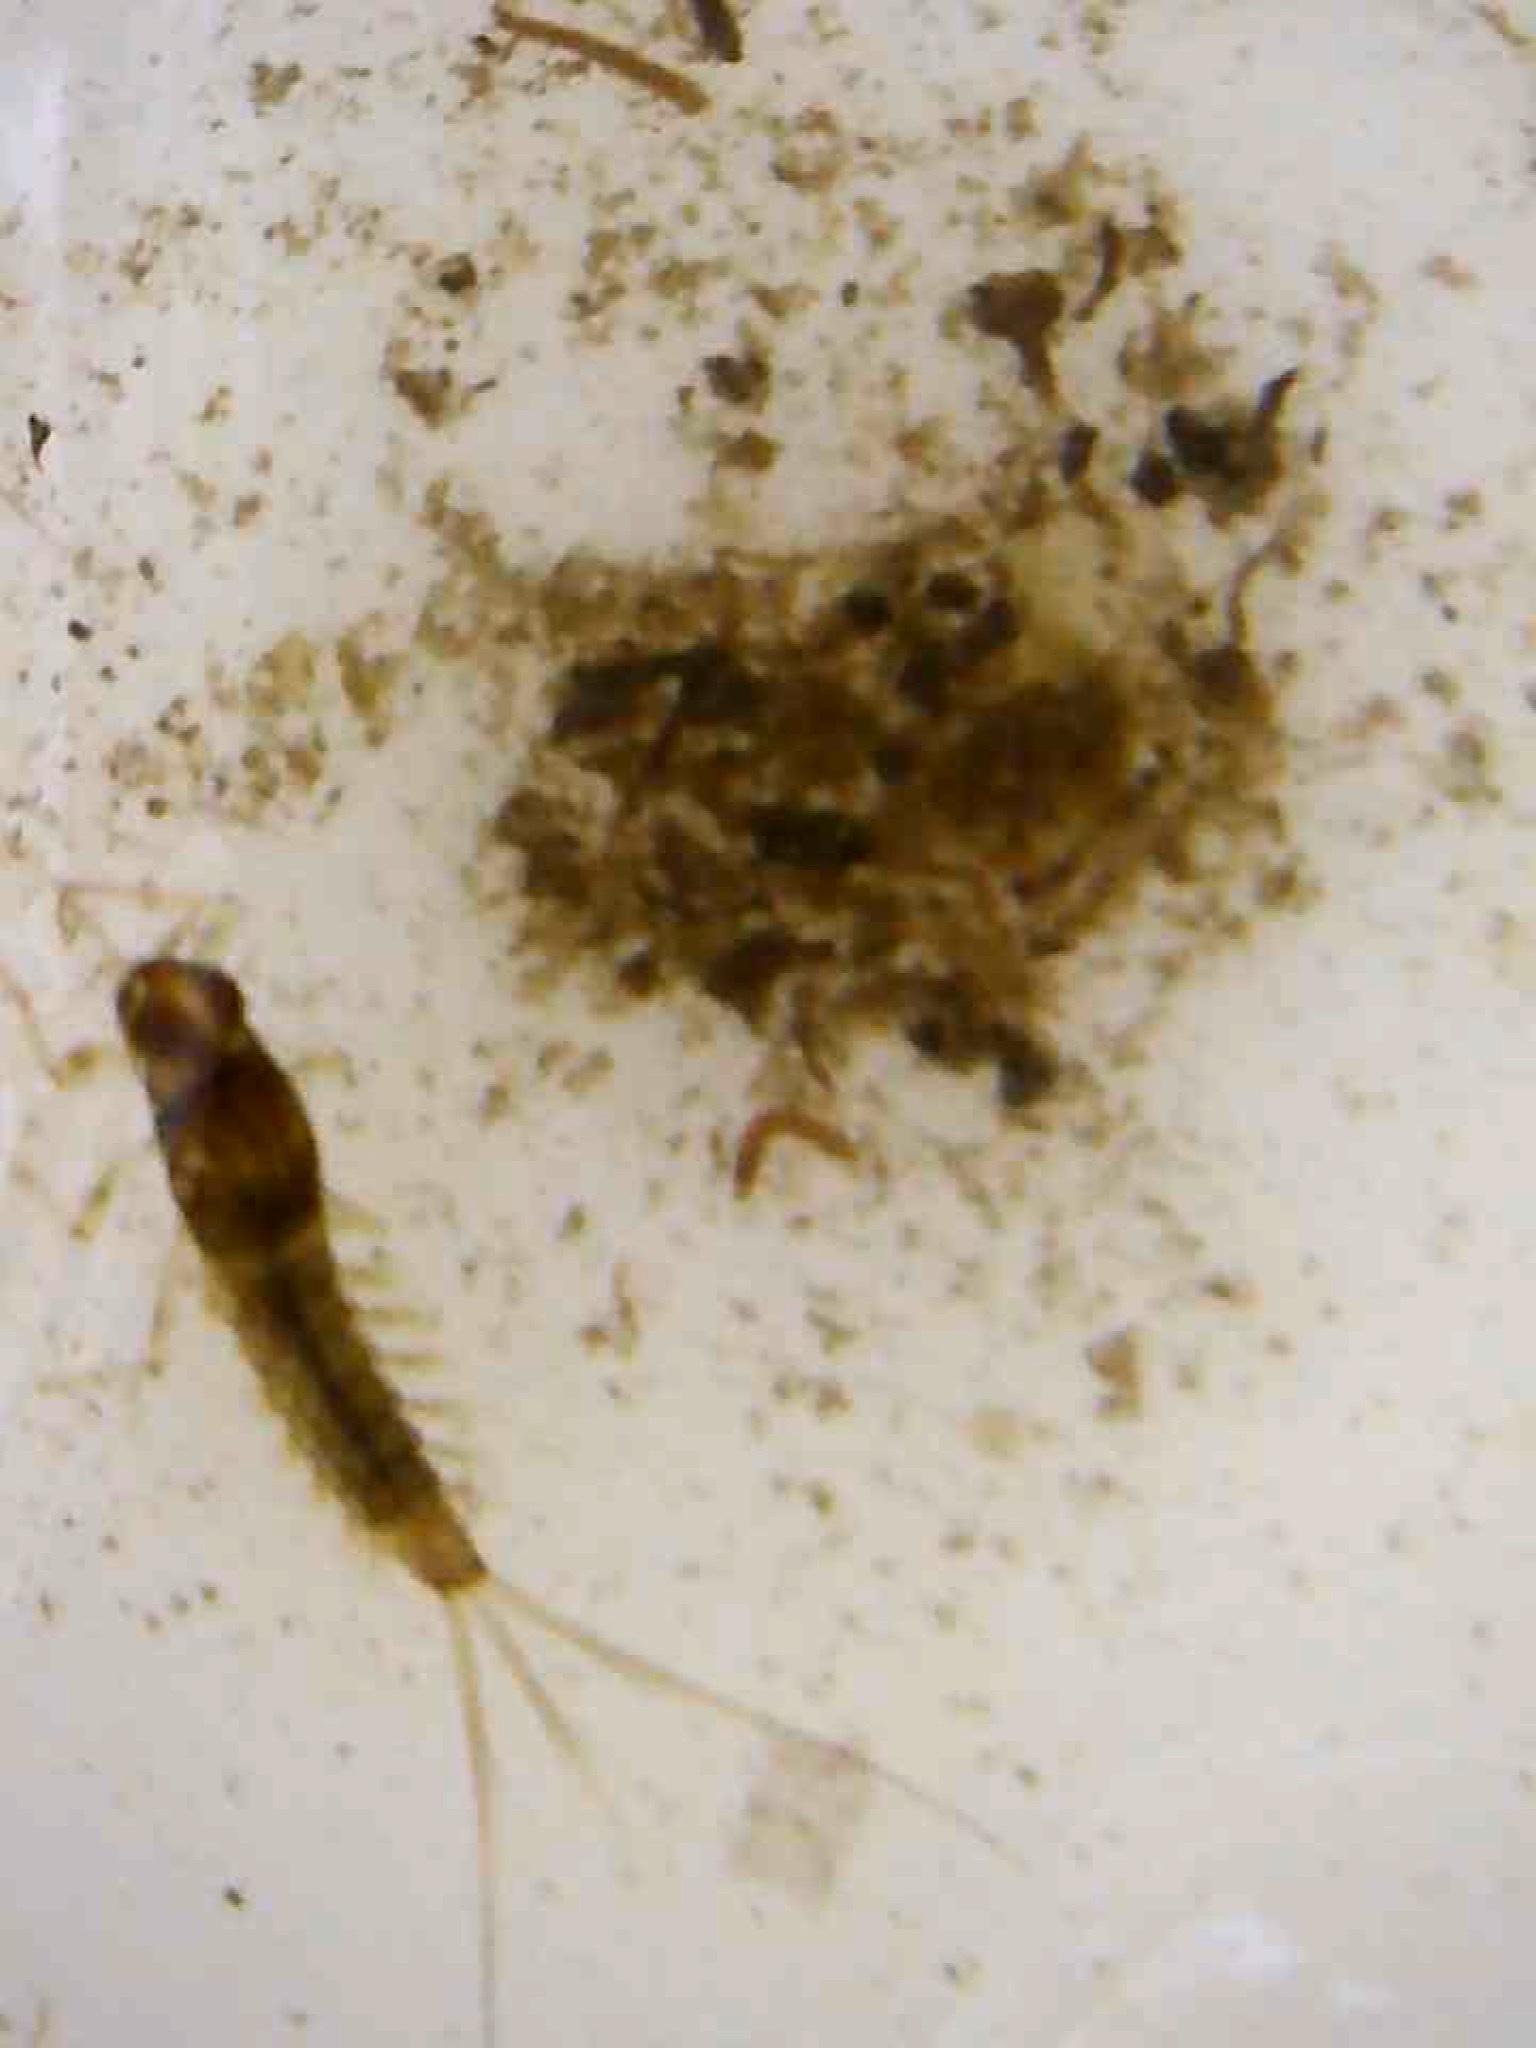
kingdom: Animalia
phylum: Arthropoda
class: Insecta
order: Ephemeroptera
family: Baetidae
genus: Diphetor
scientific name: Diphetor hageni
